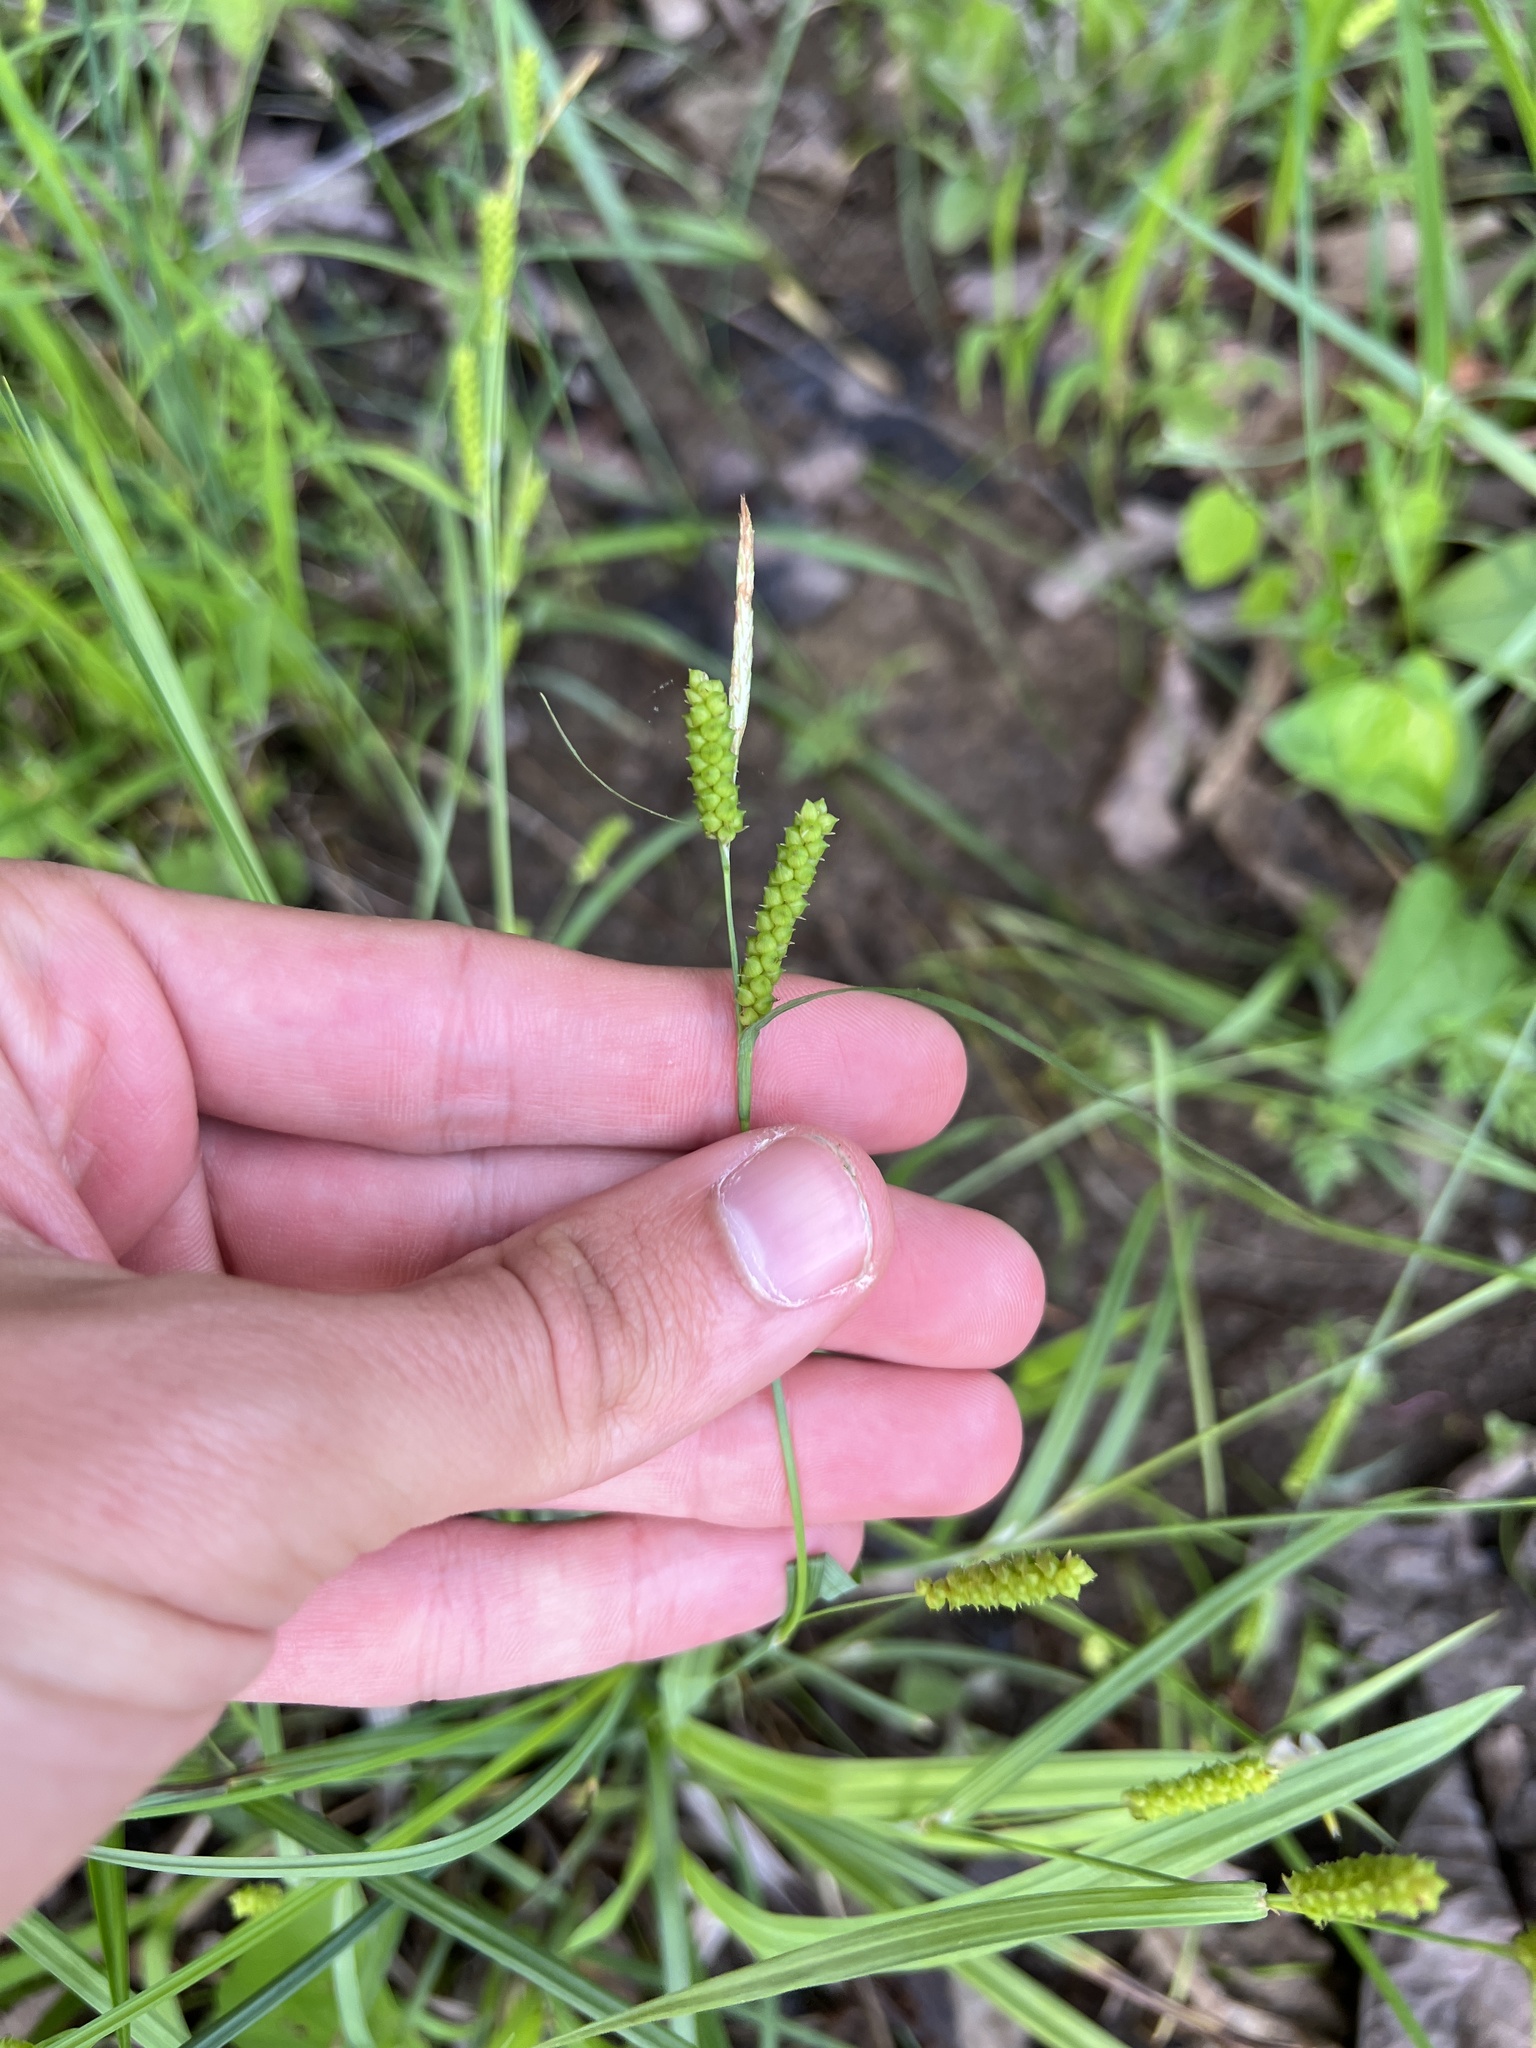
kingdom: Plantae
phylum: Tracheophyta
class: Liliopsida
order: Poales
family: Cyperaceae
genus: Carex
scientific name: Carex granularis
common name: Granular sedge
